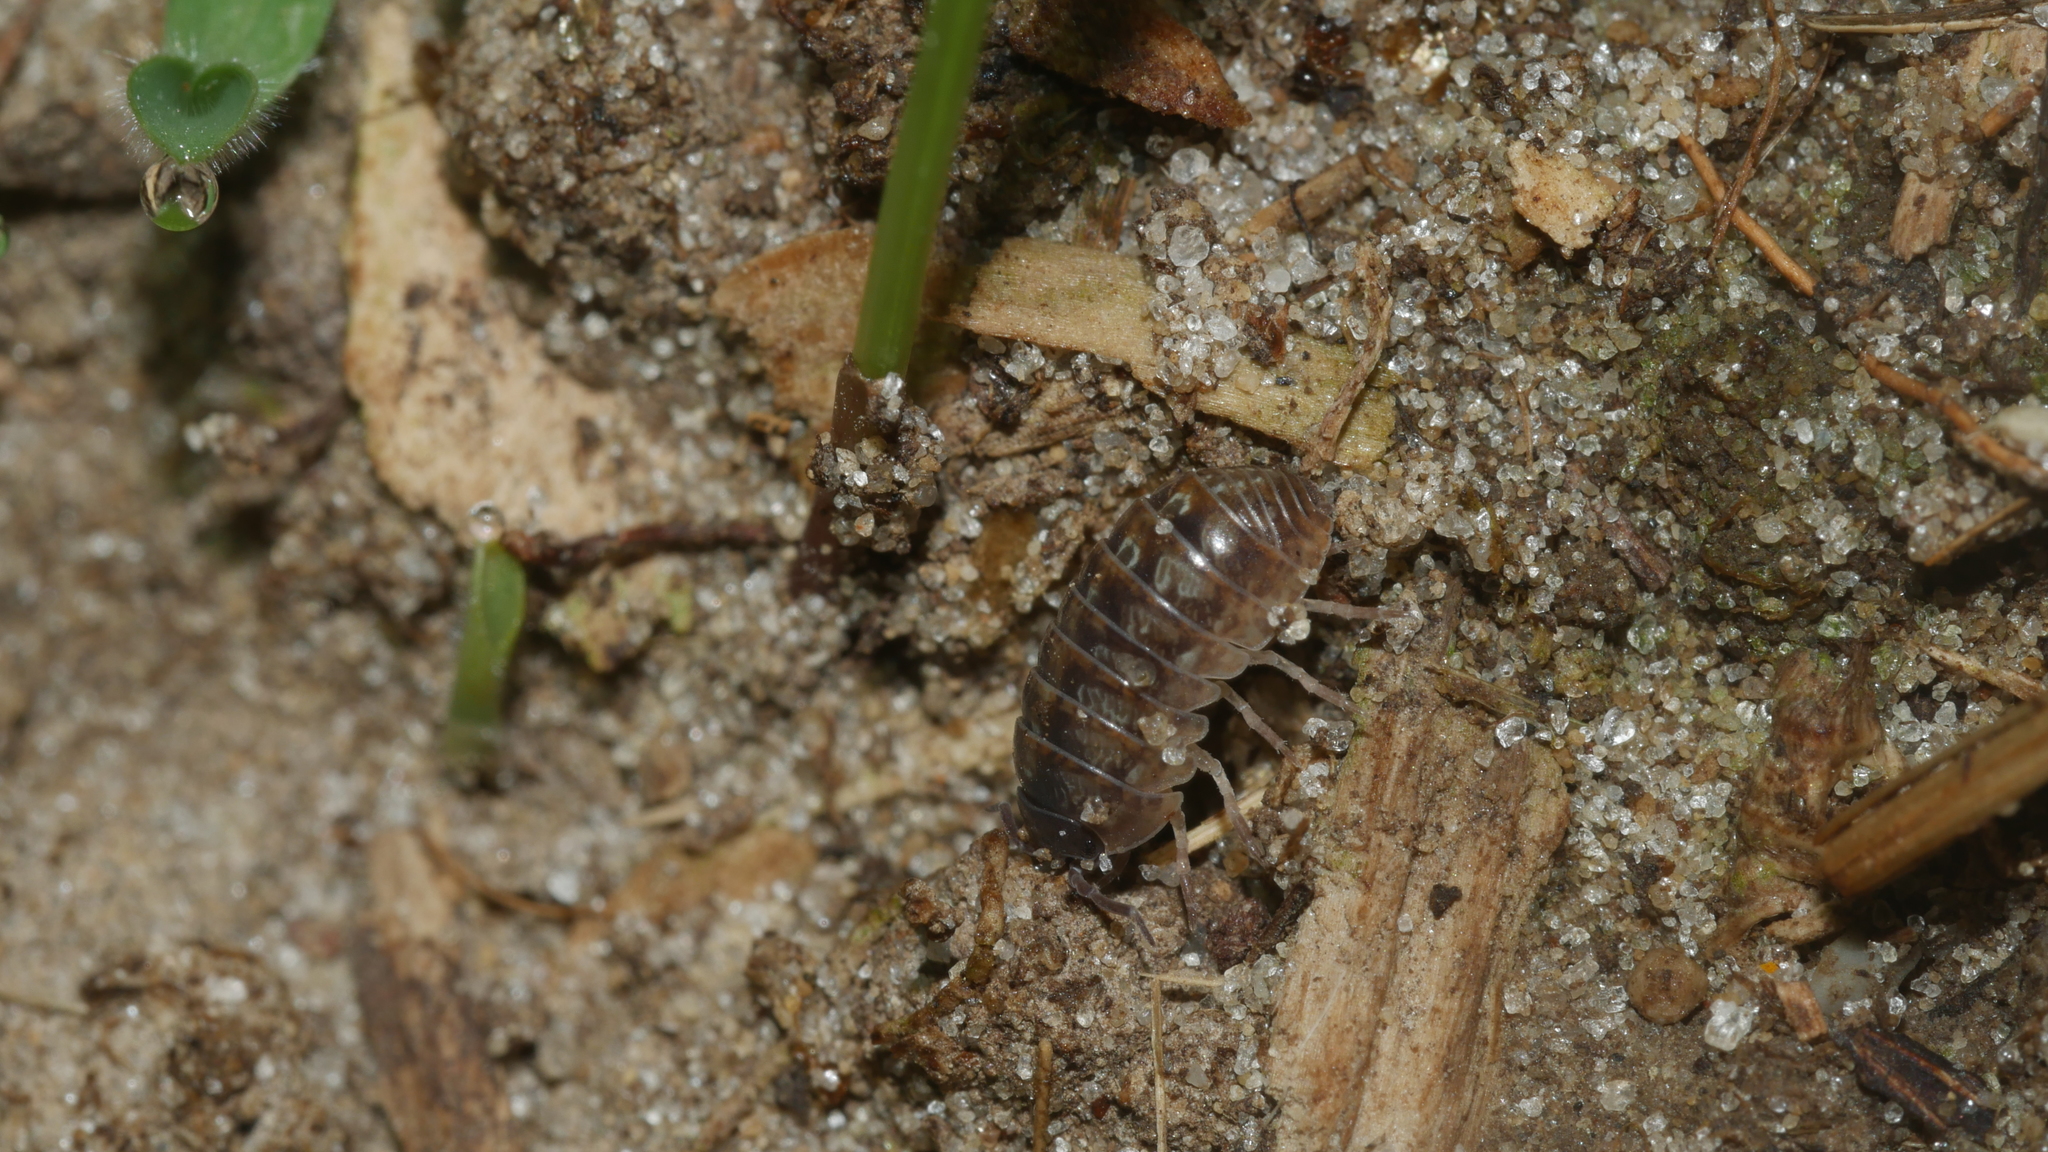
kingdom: Animalia
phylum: Arthropoda
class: Malacostraca
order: Isopoda
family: Armadillidiidae
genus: Armadillidium
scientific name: Armadillidium vulgare
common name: Common pill woodlouse
